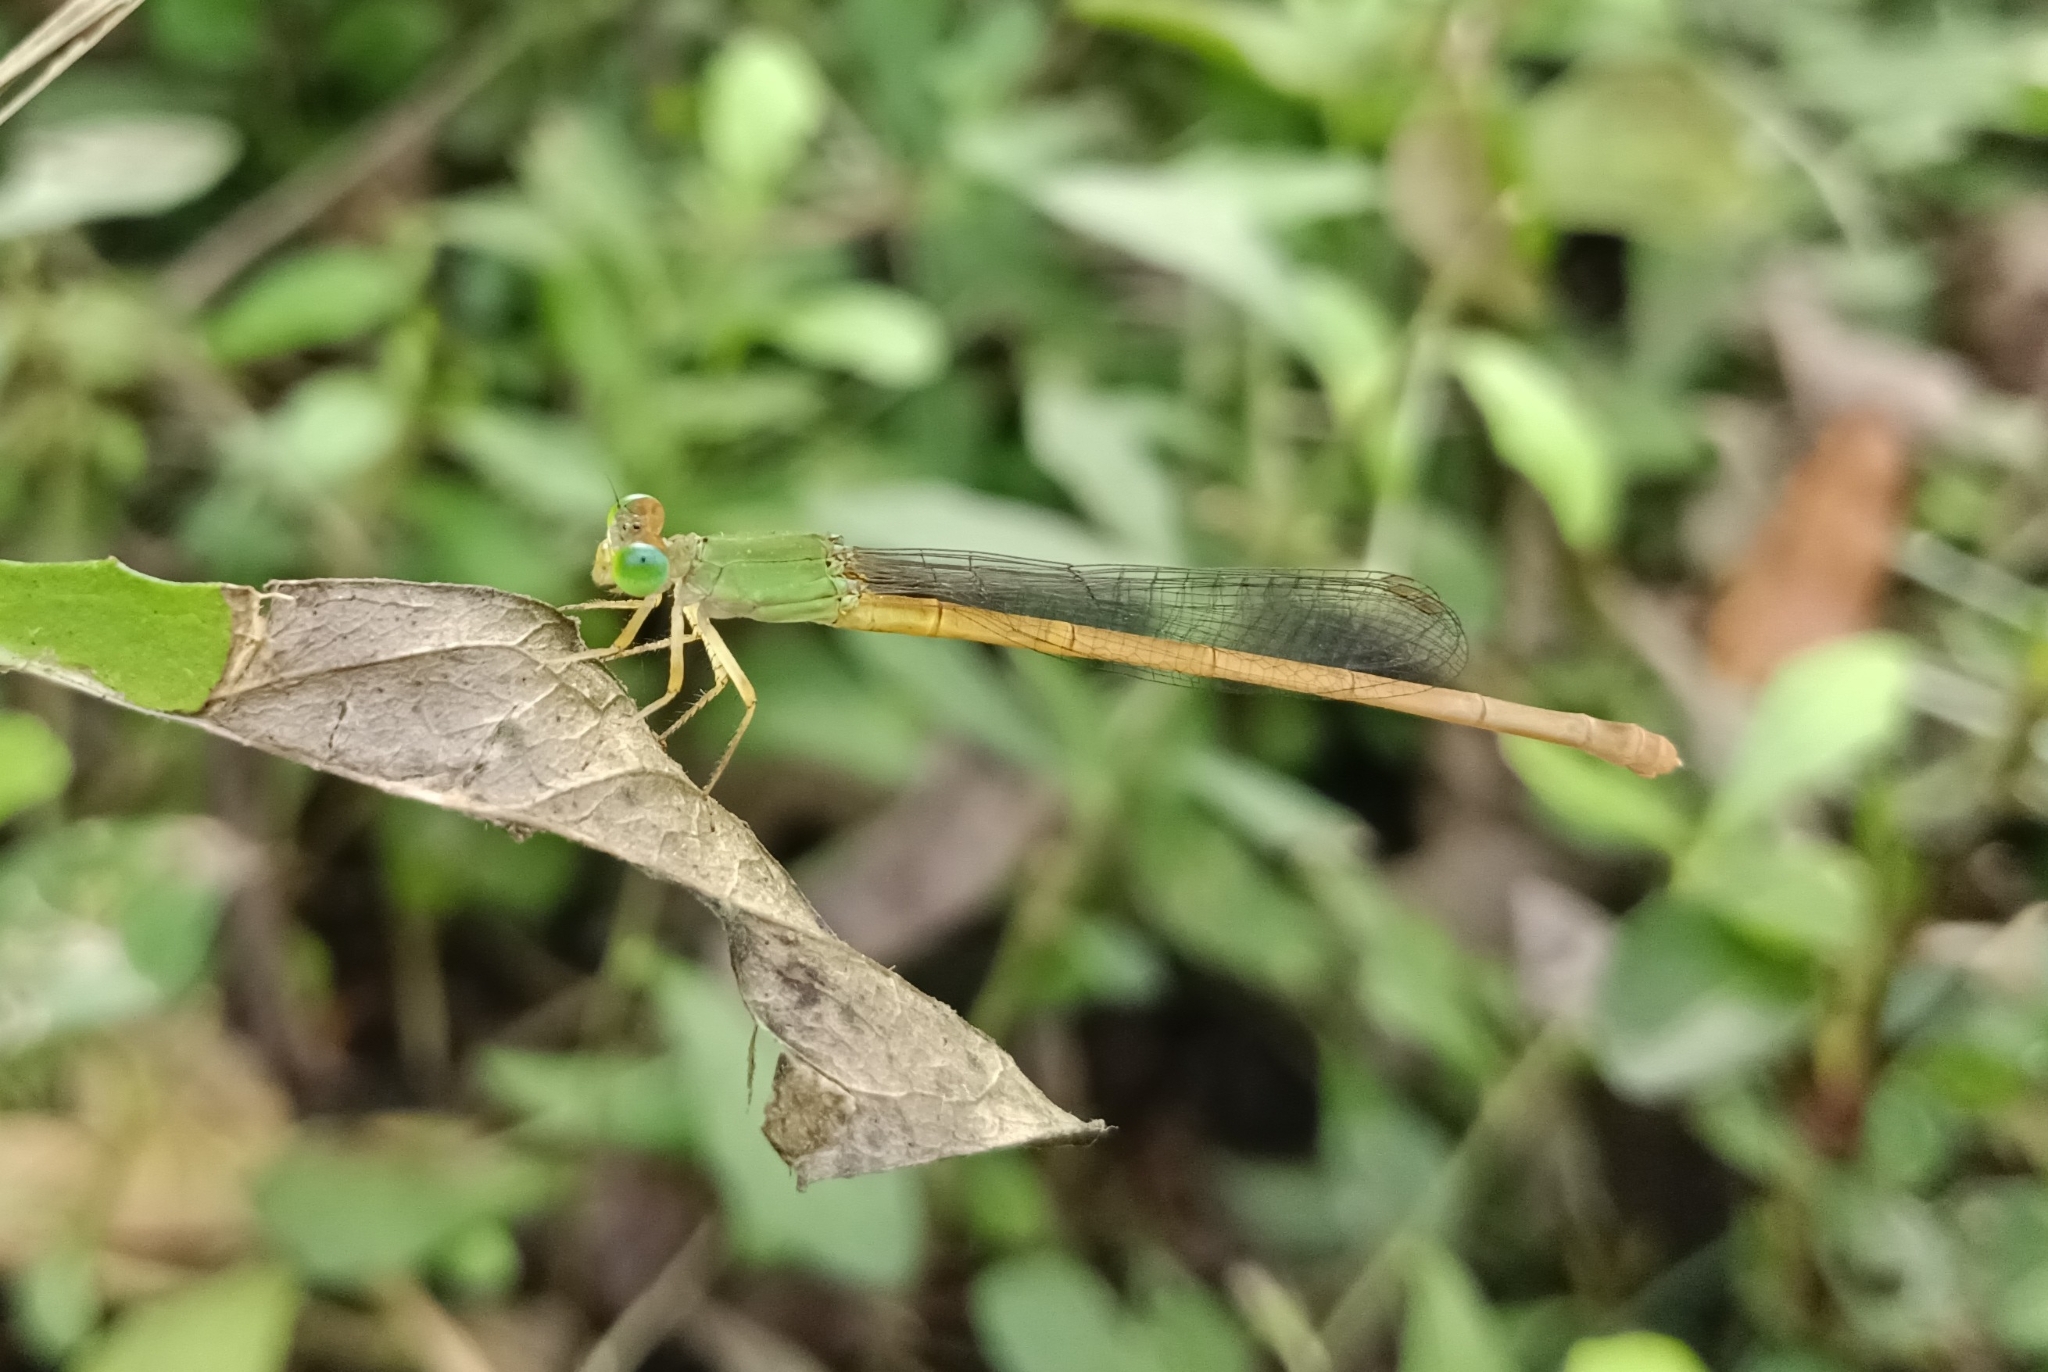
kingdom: Animalia
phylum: Arthropoda
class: Insecta
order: Odonata
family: Coenagrionidae
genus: Ceriagrion
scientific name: Ceriagrion coromandelianum
